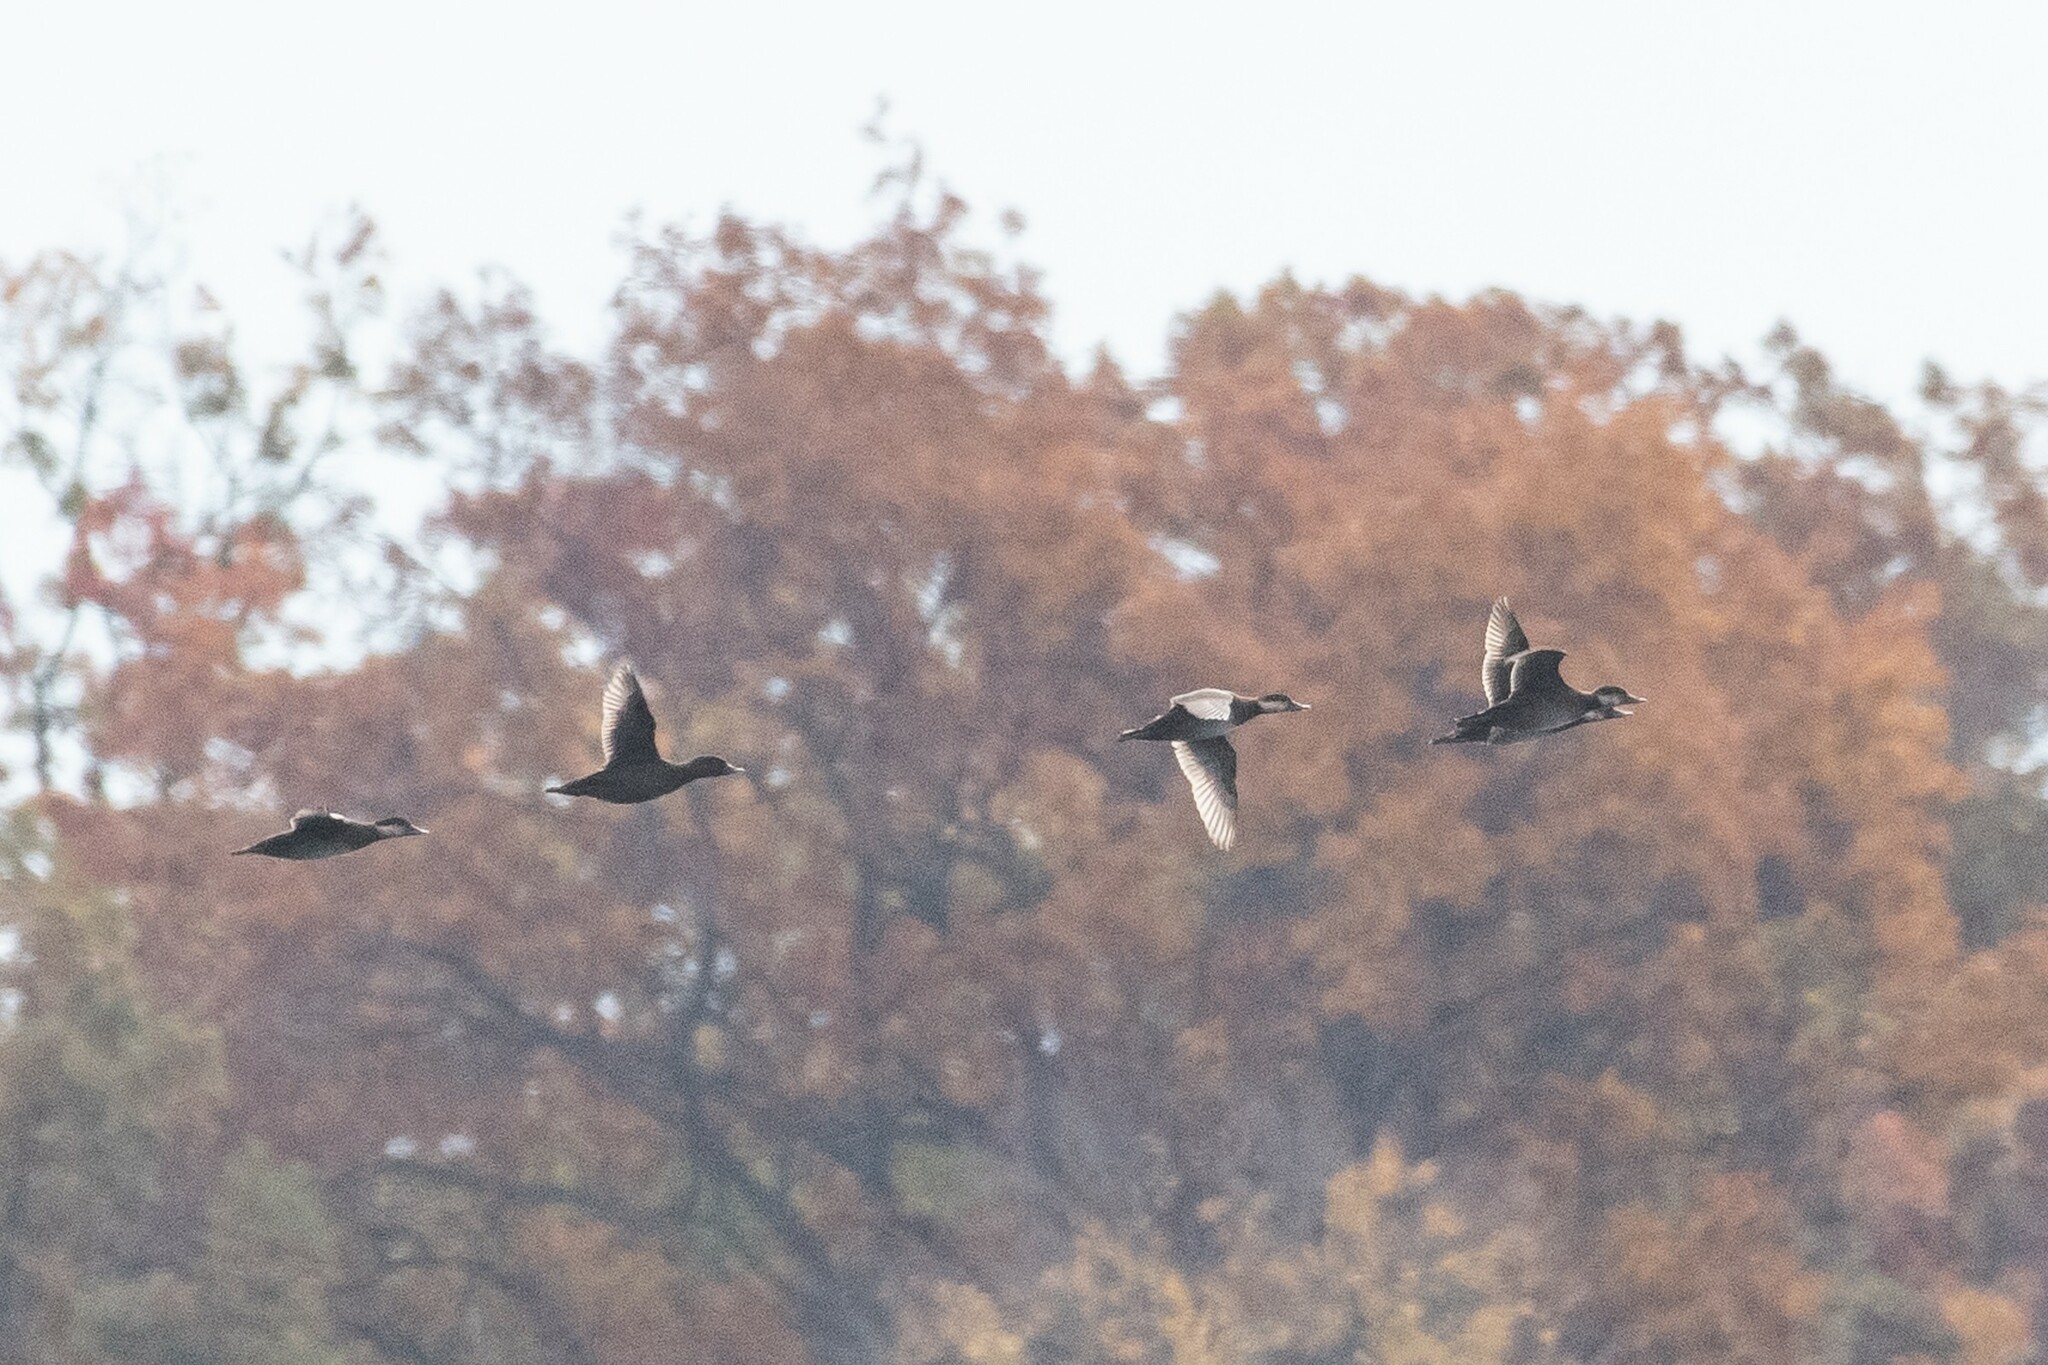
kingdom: Animalia
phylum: Chordata
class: Aves
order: Anseriformes
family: Anatidae
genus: Melanitta
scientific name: Melanitta americana
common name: Black scoter
